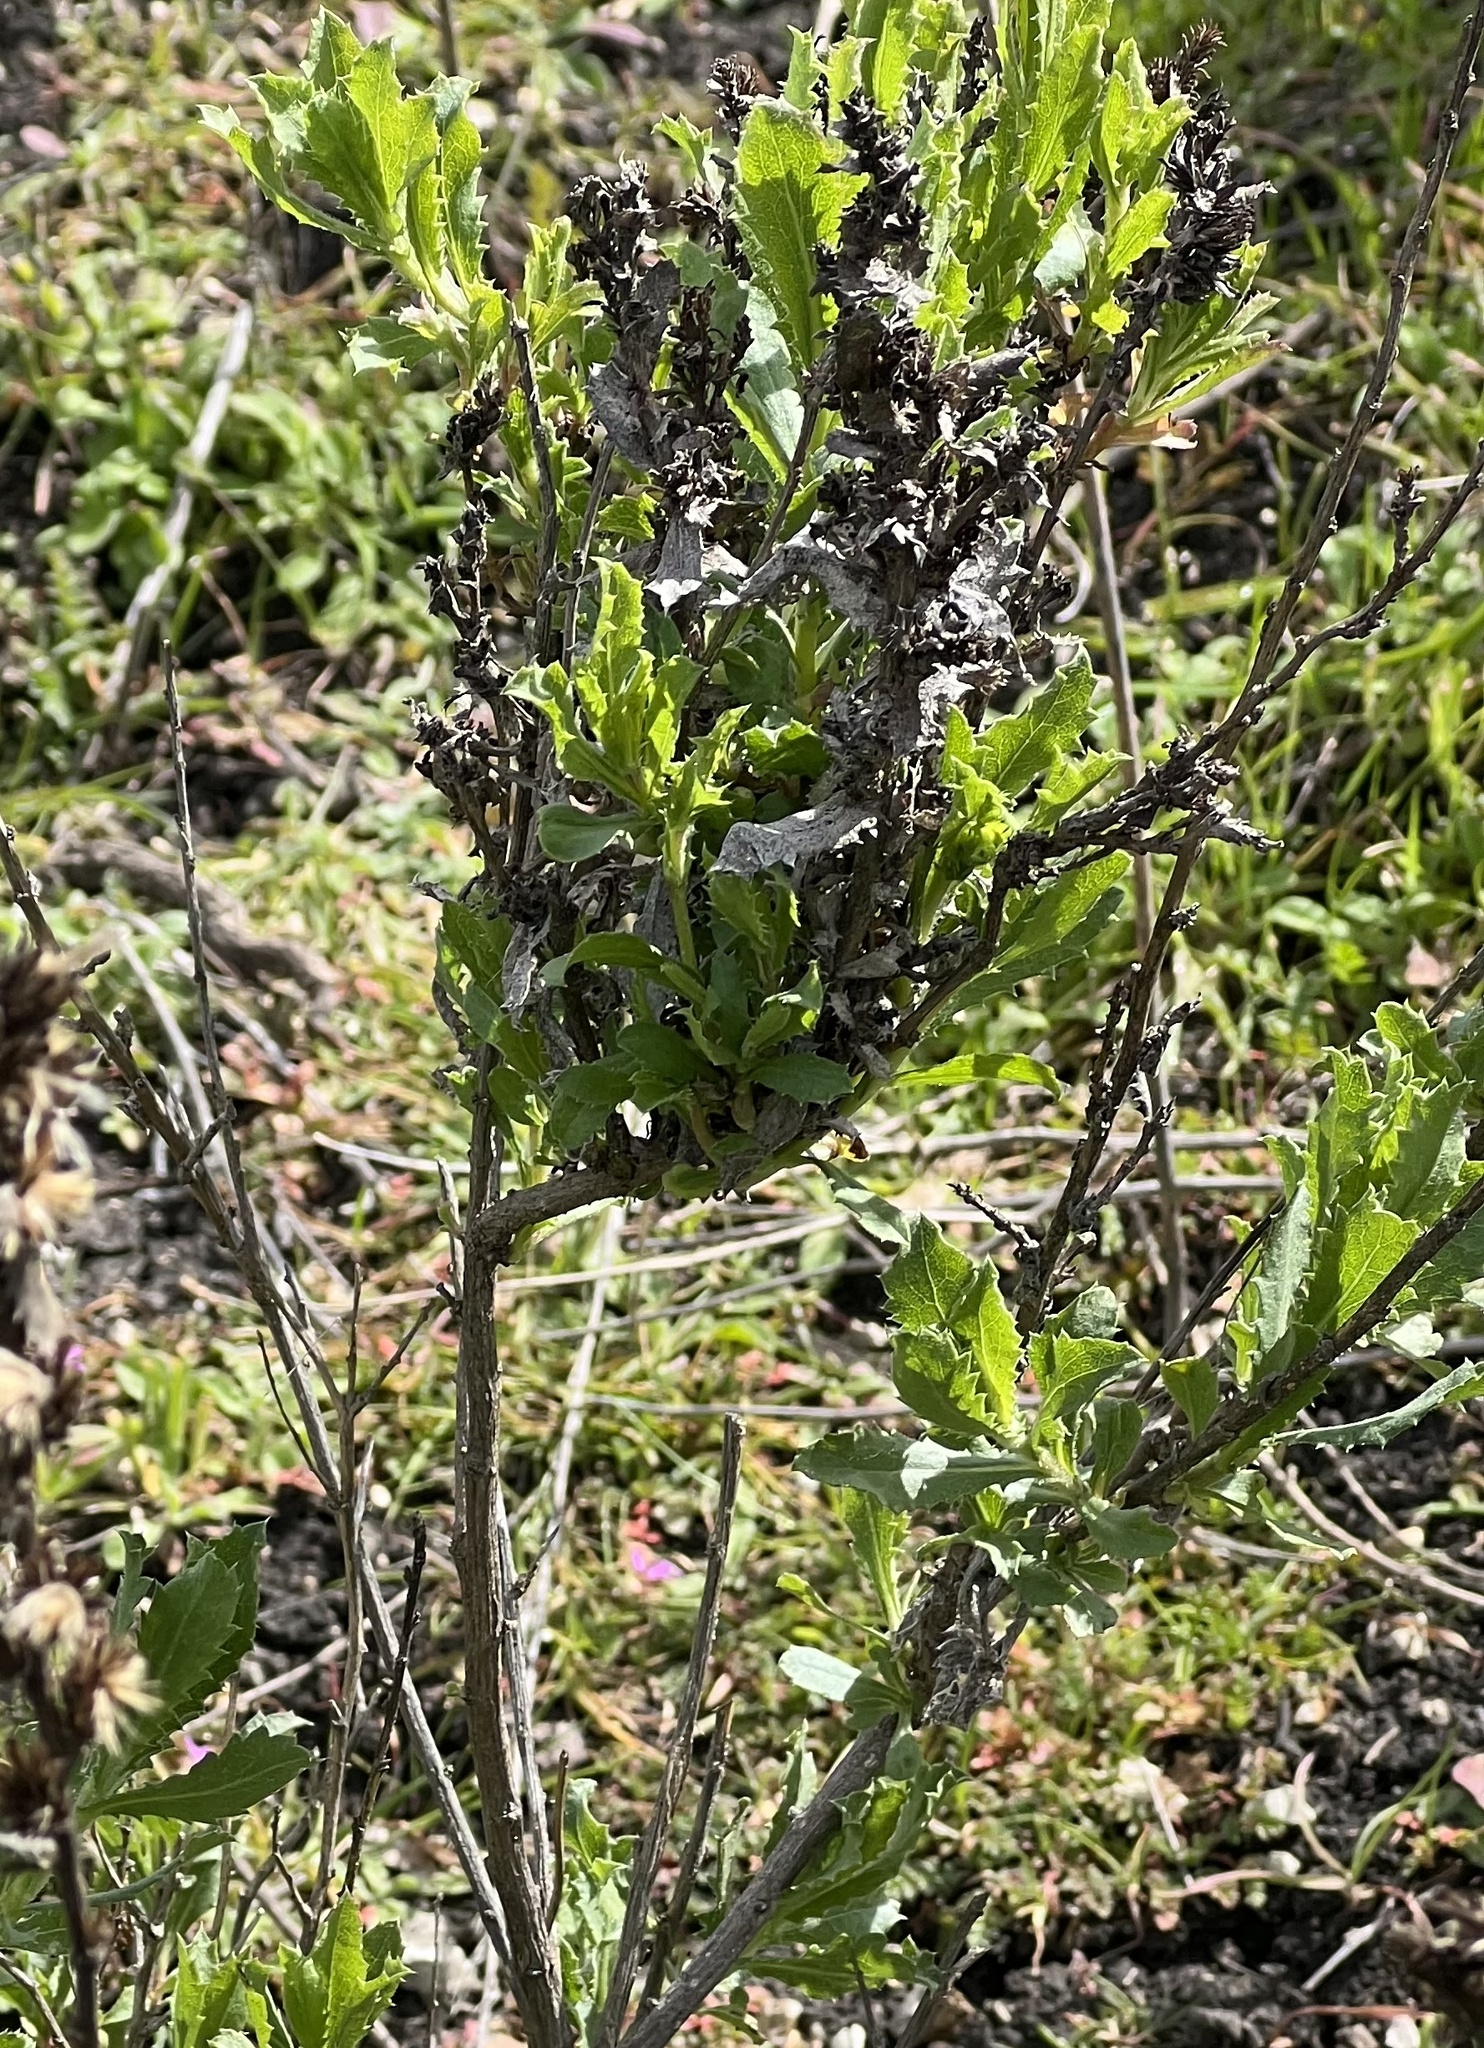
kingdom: Plantae
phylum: Tracheophyta
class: Magnoliopsida
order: Asterales
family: Asteraceae
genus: Isocoma
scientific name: Isocoma menziesii
